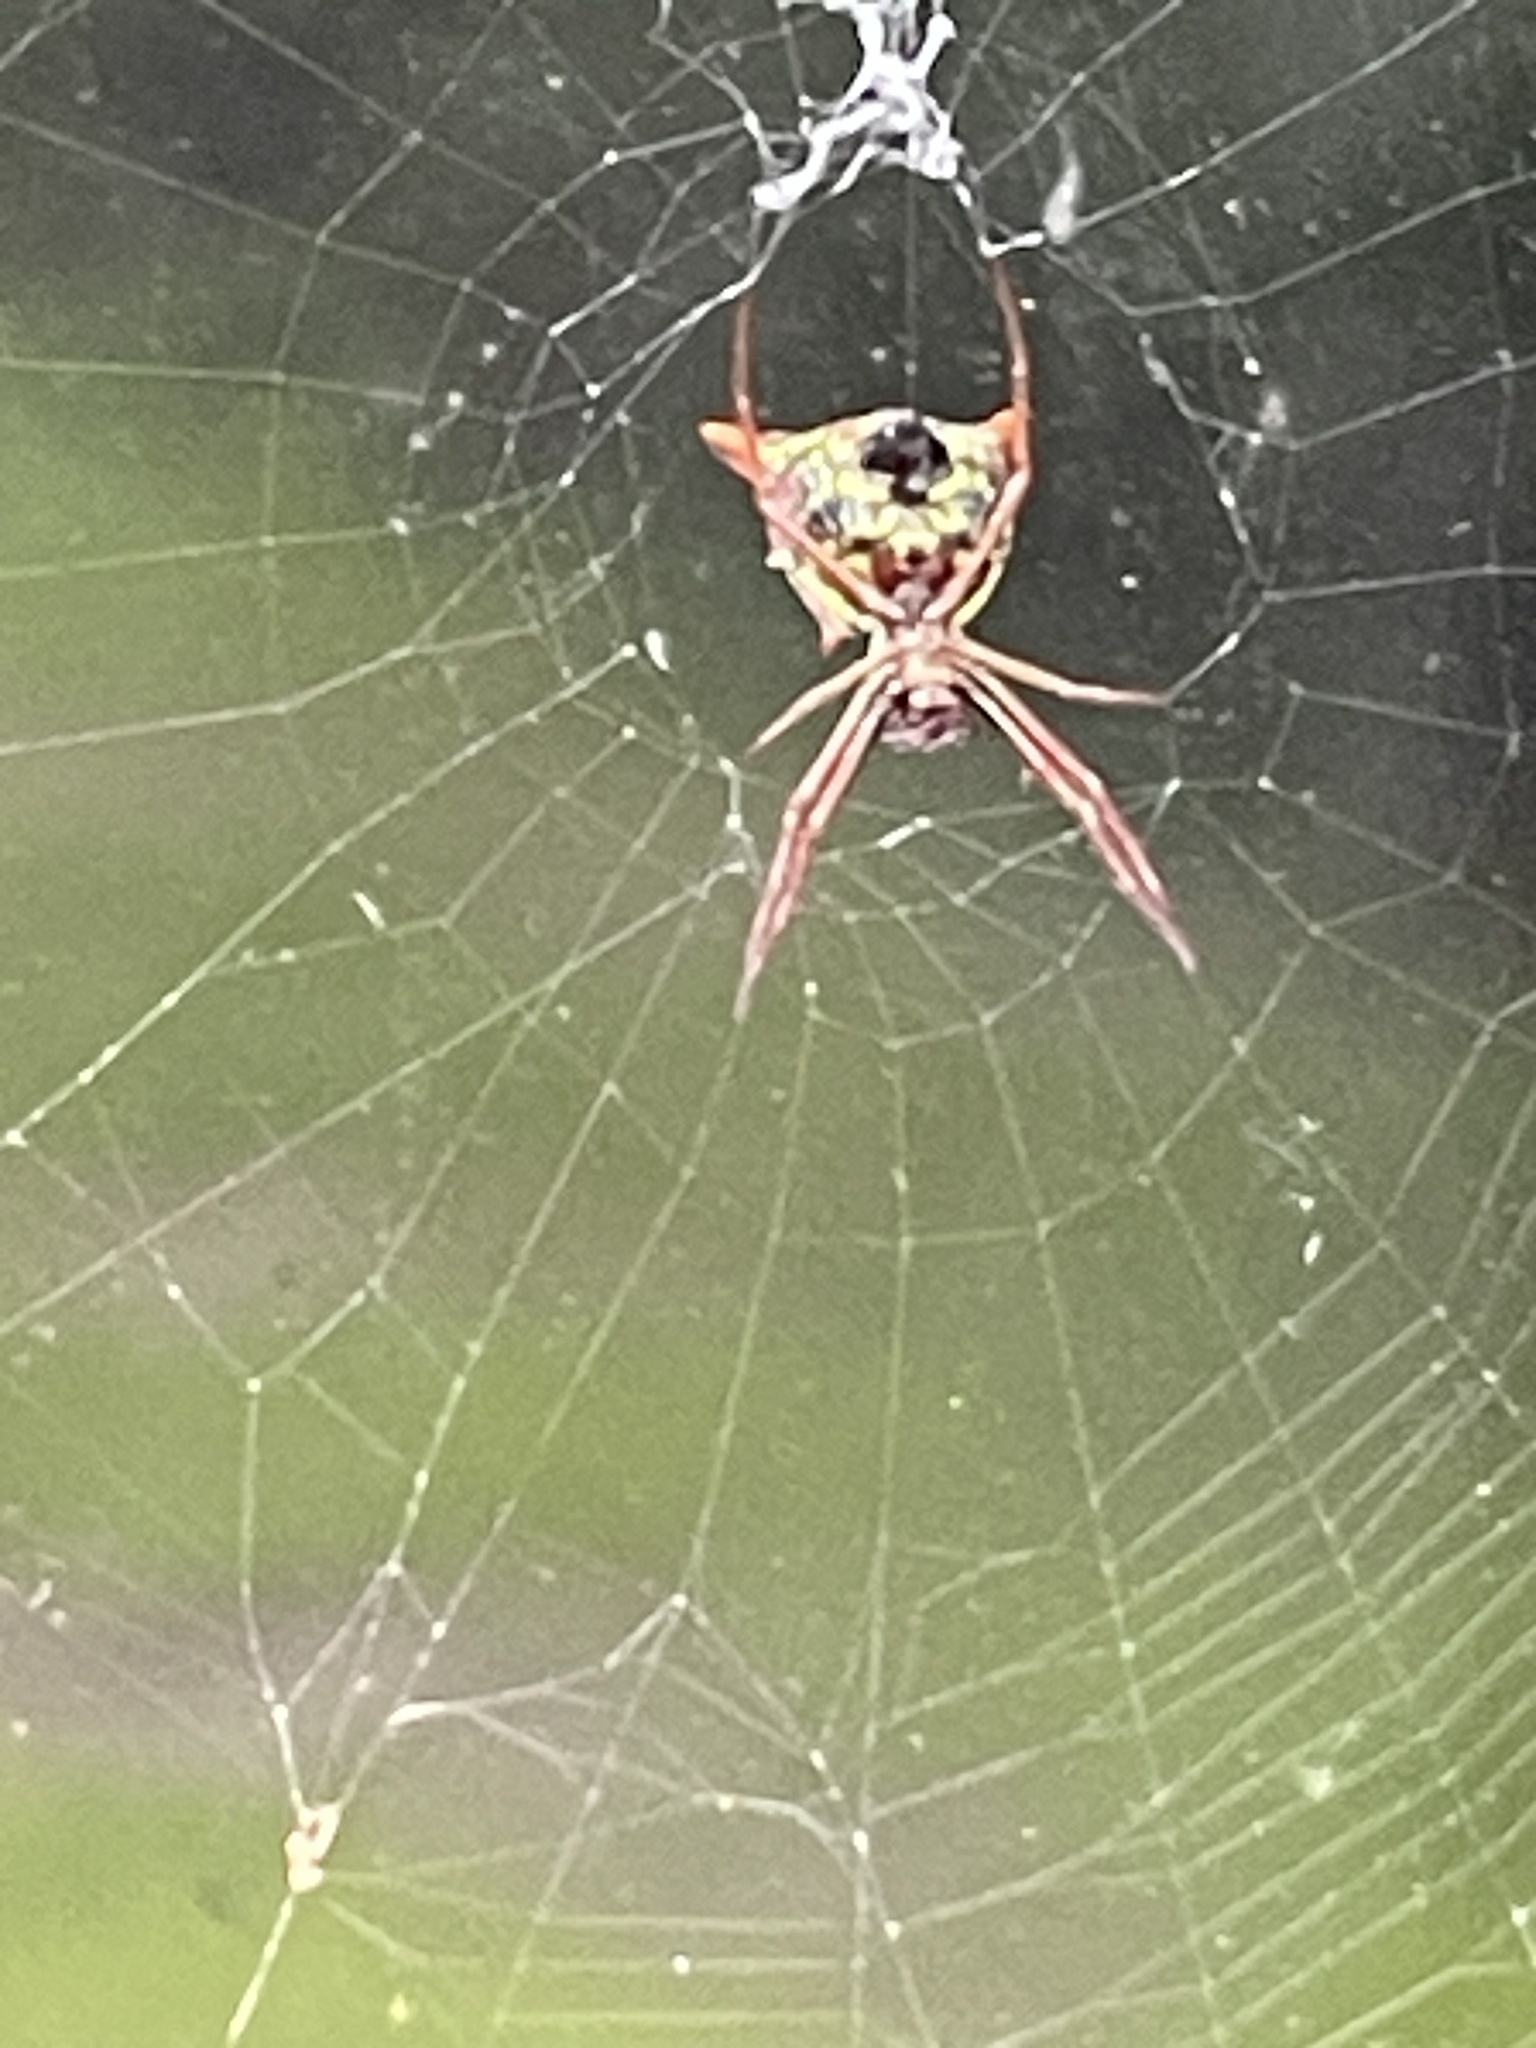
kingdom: Animalia
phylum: Arthropoda
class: Arachnida
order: Araneae
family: Araneidae
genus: Micrathena
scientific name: Micrathena sagittata
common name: Orb weavers
